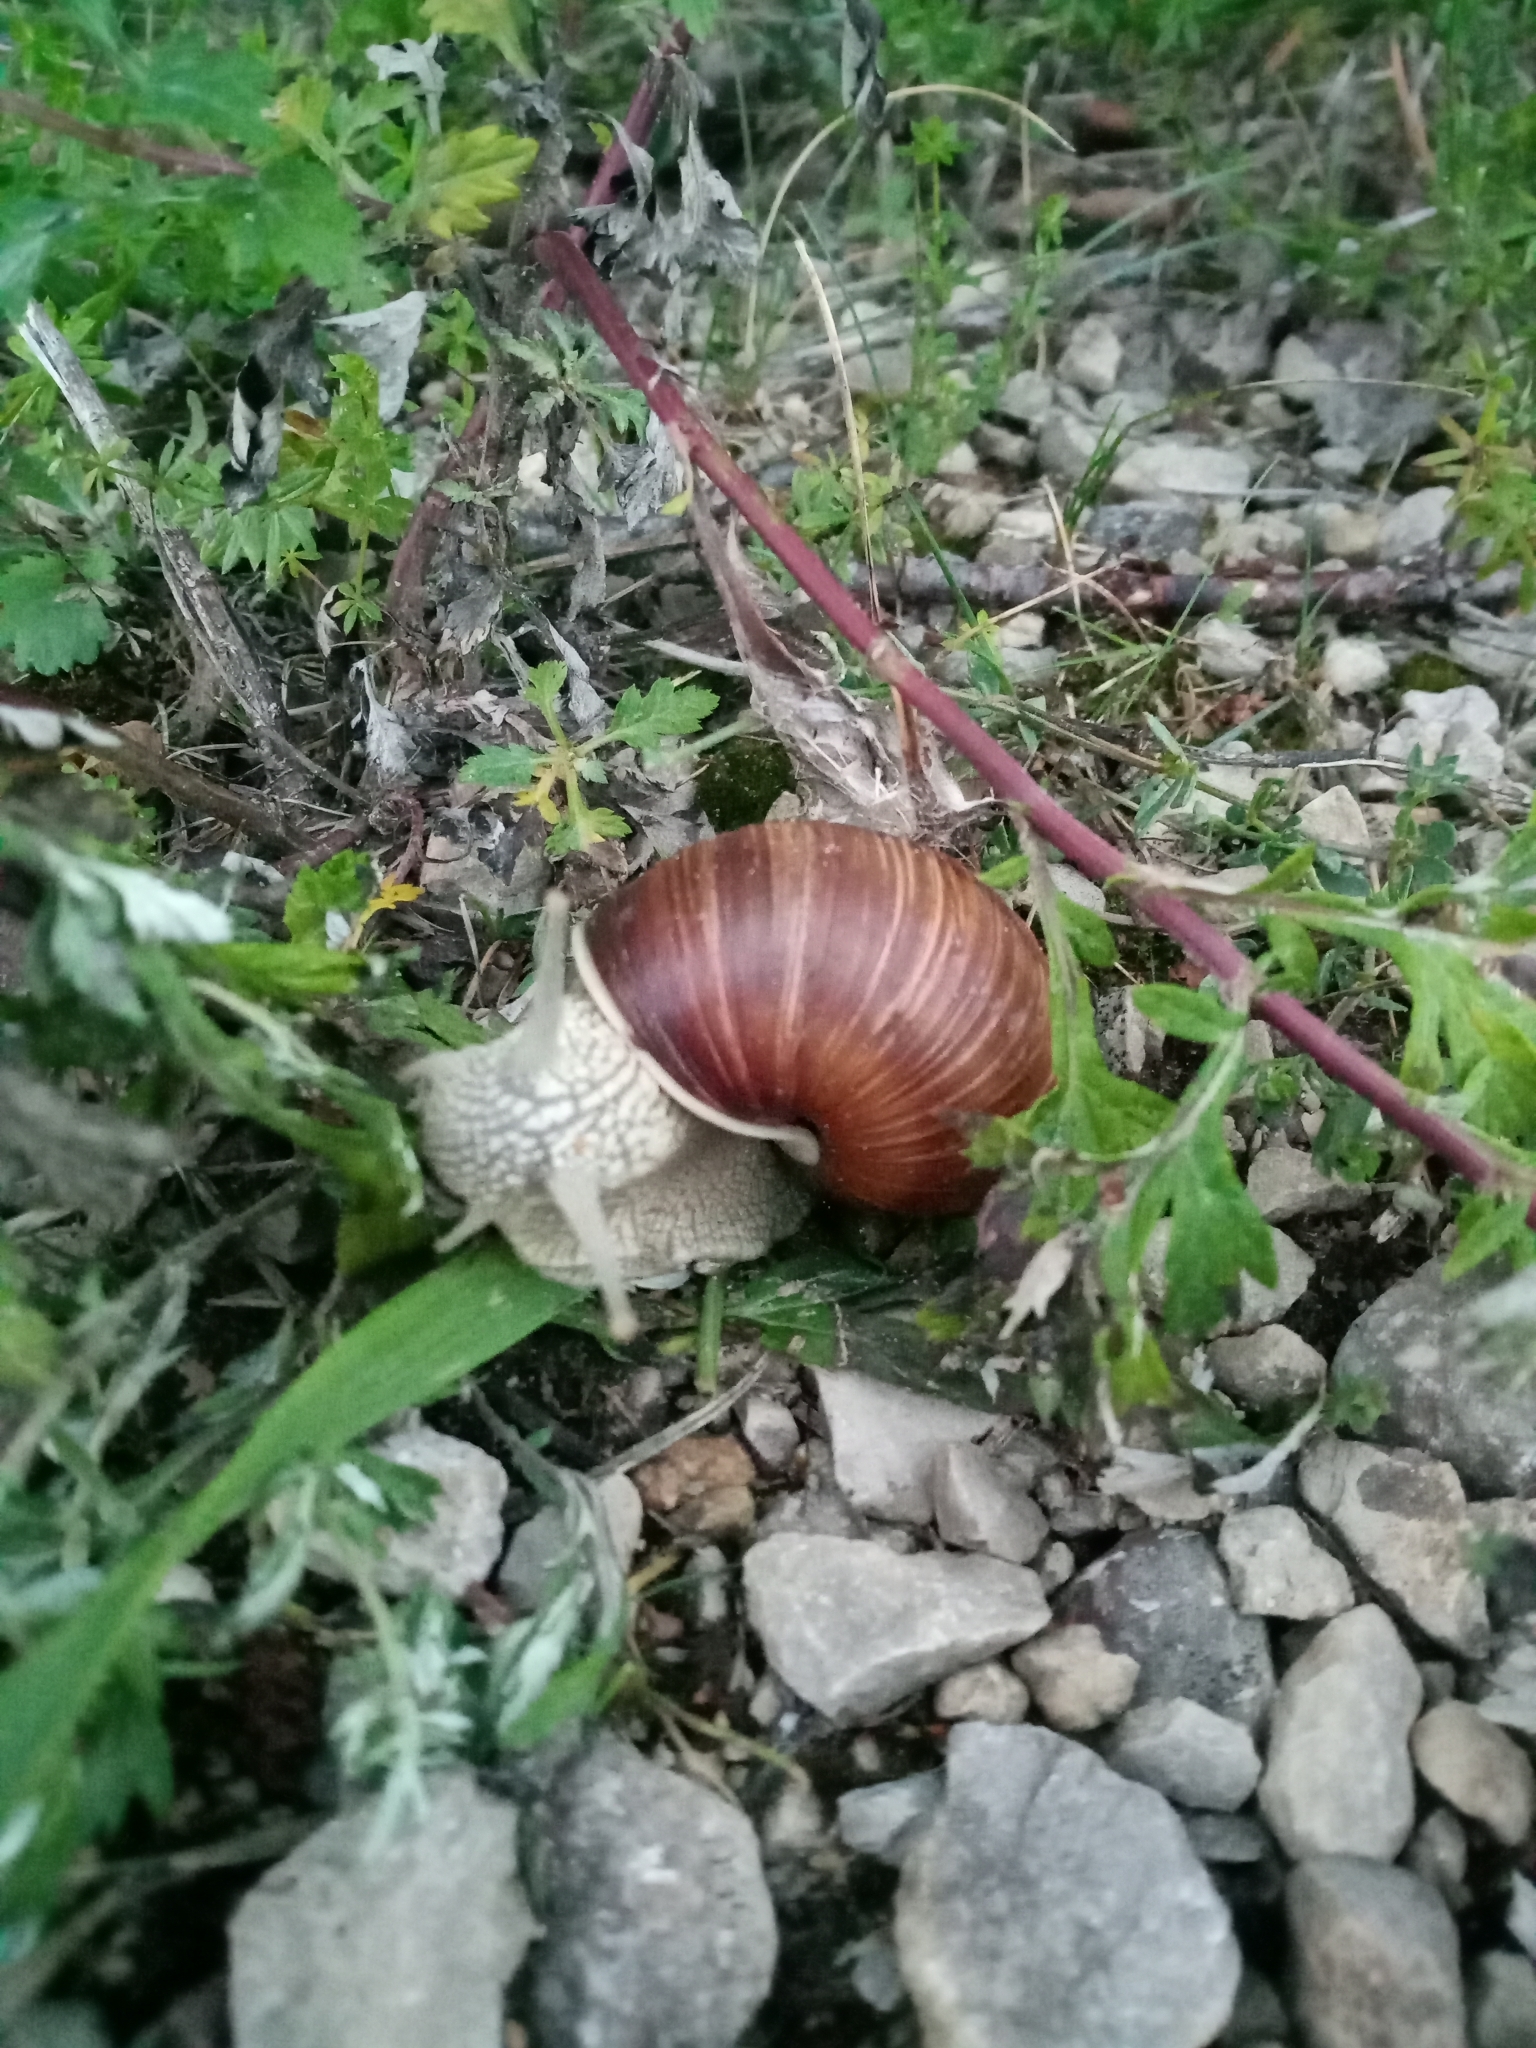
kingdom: Animalia
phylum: Mollusca
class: Gastropoda
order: Stylommatophora
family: Helicidae
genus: Helix
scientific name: Helix pomatia
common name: Roman snail
